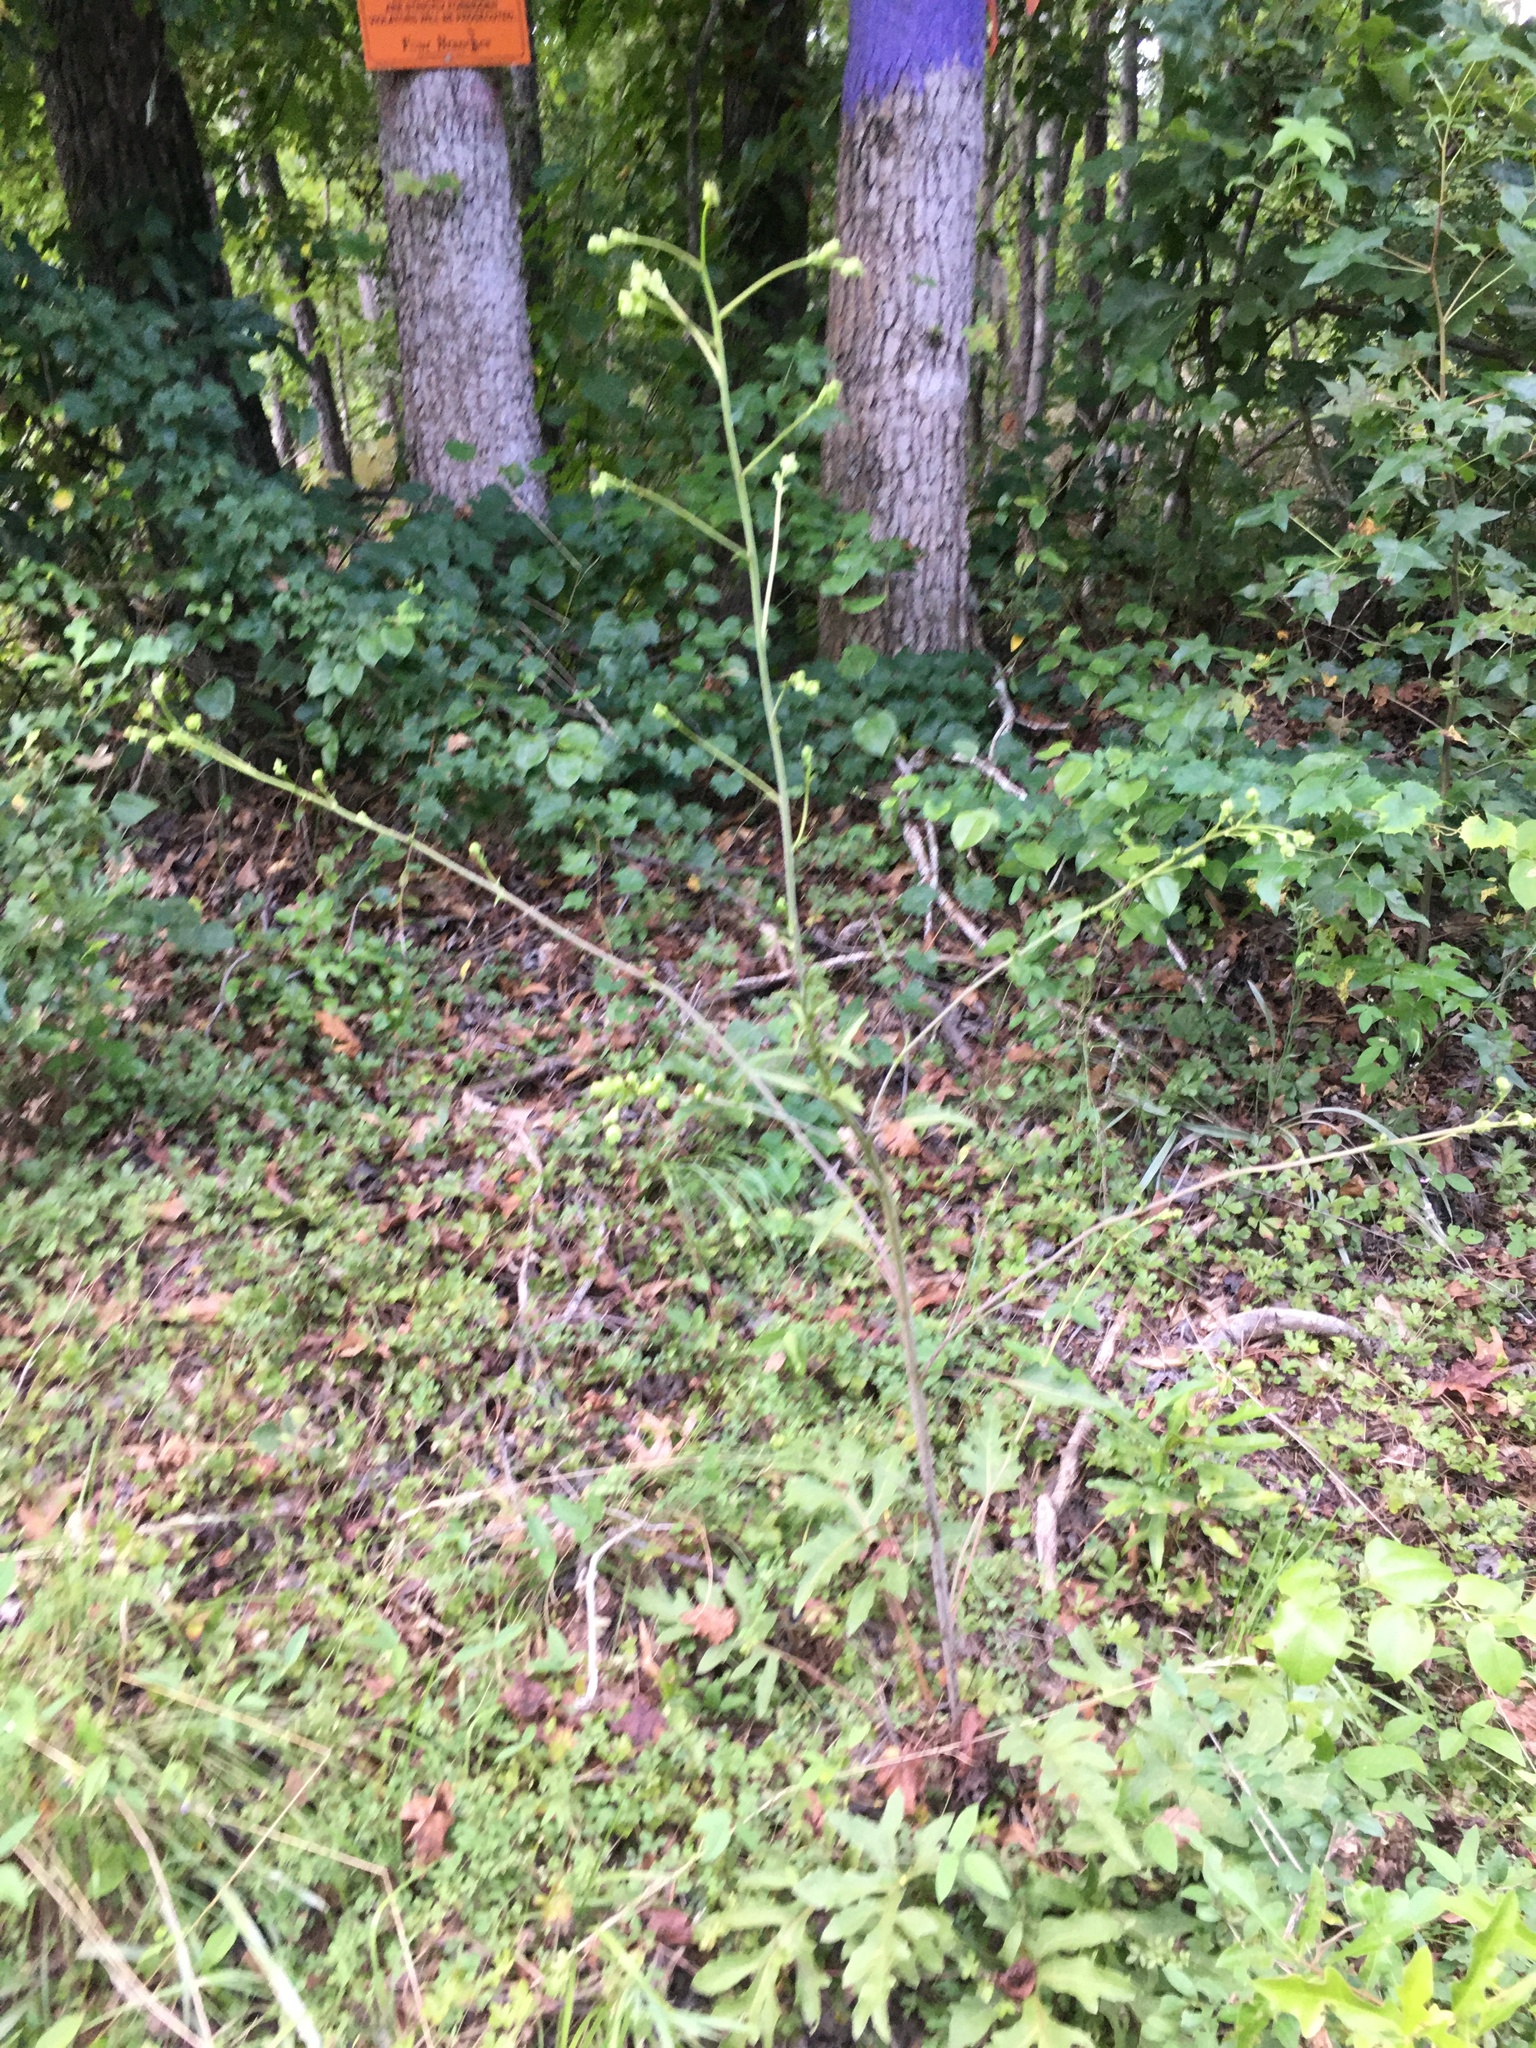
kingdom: Plantae
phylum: Tracheophyta
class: Magnoliopsida
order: Asterales
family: Asteraceae
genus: Silphium
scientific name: Silphium compositum
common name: Lesser basal-leaf rosinweed
